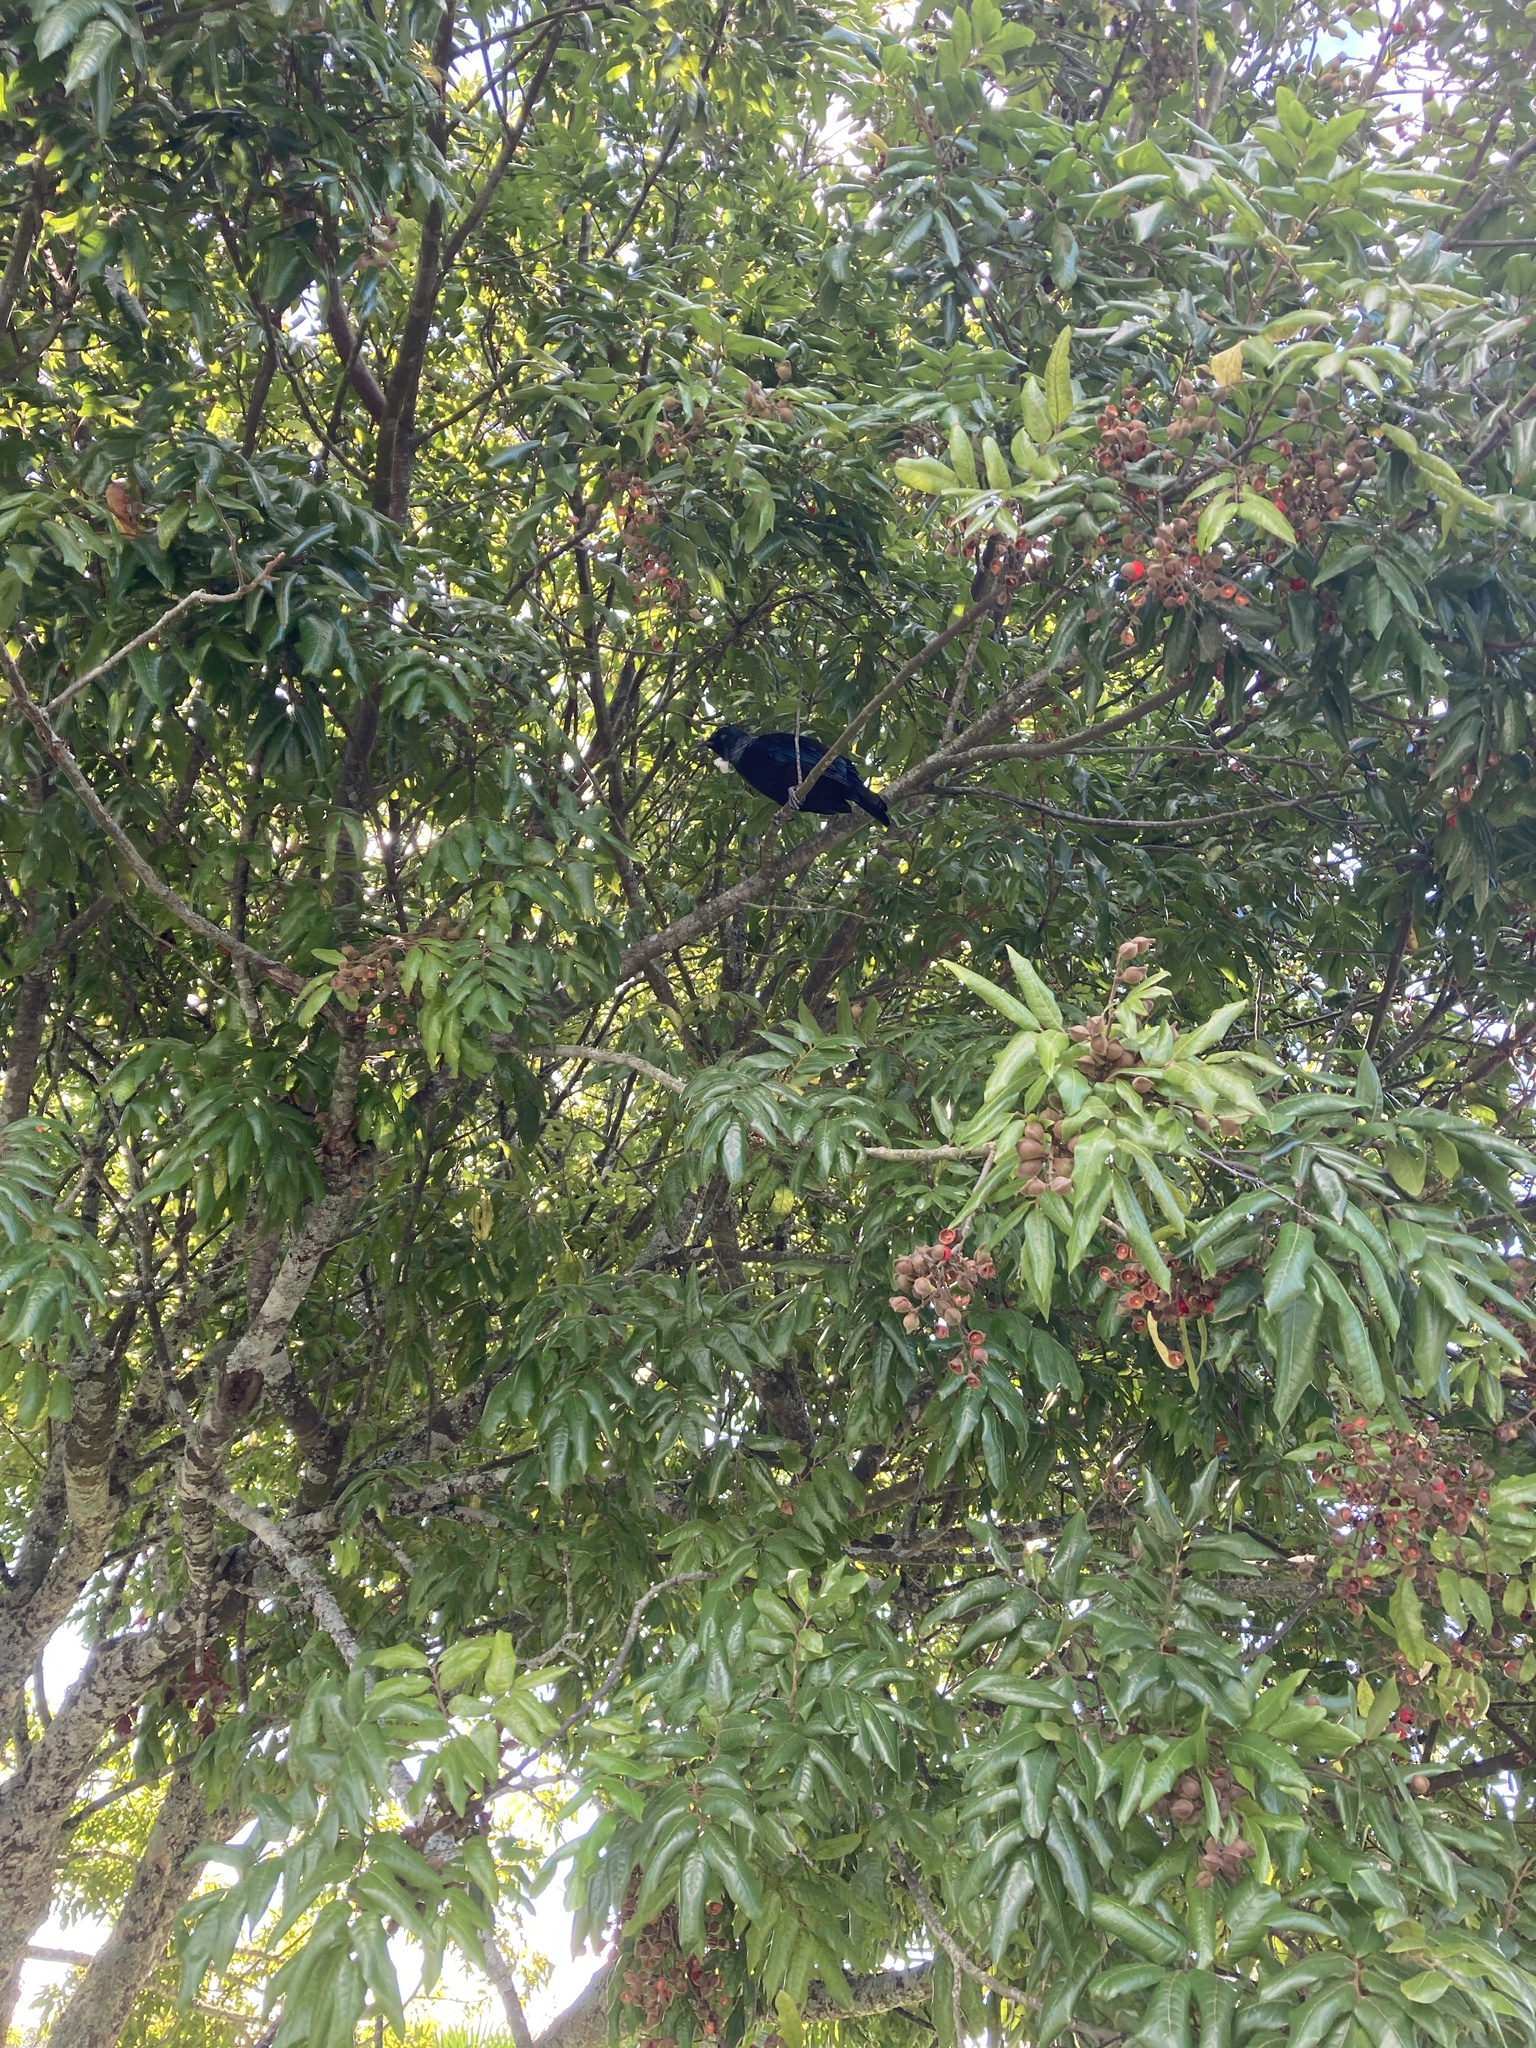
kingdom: Animalia
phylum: Chordata
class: Aves
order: Passeriformes
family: Meliphagidae
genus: Prosthemadera
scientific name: Prosthemadera novaeseelandiae
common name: Tui
